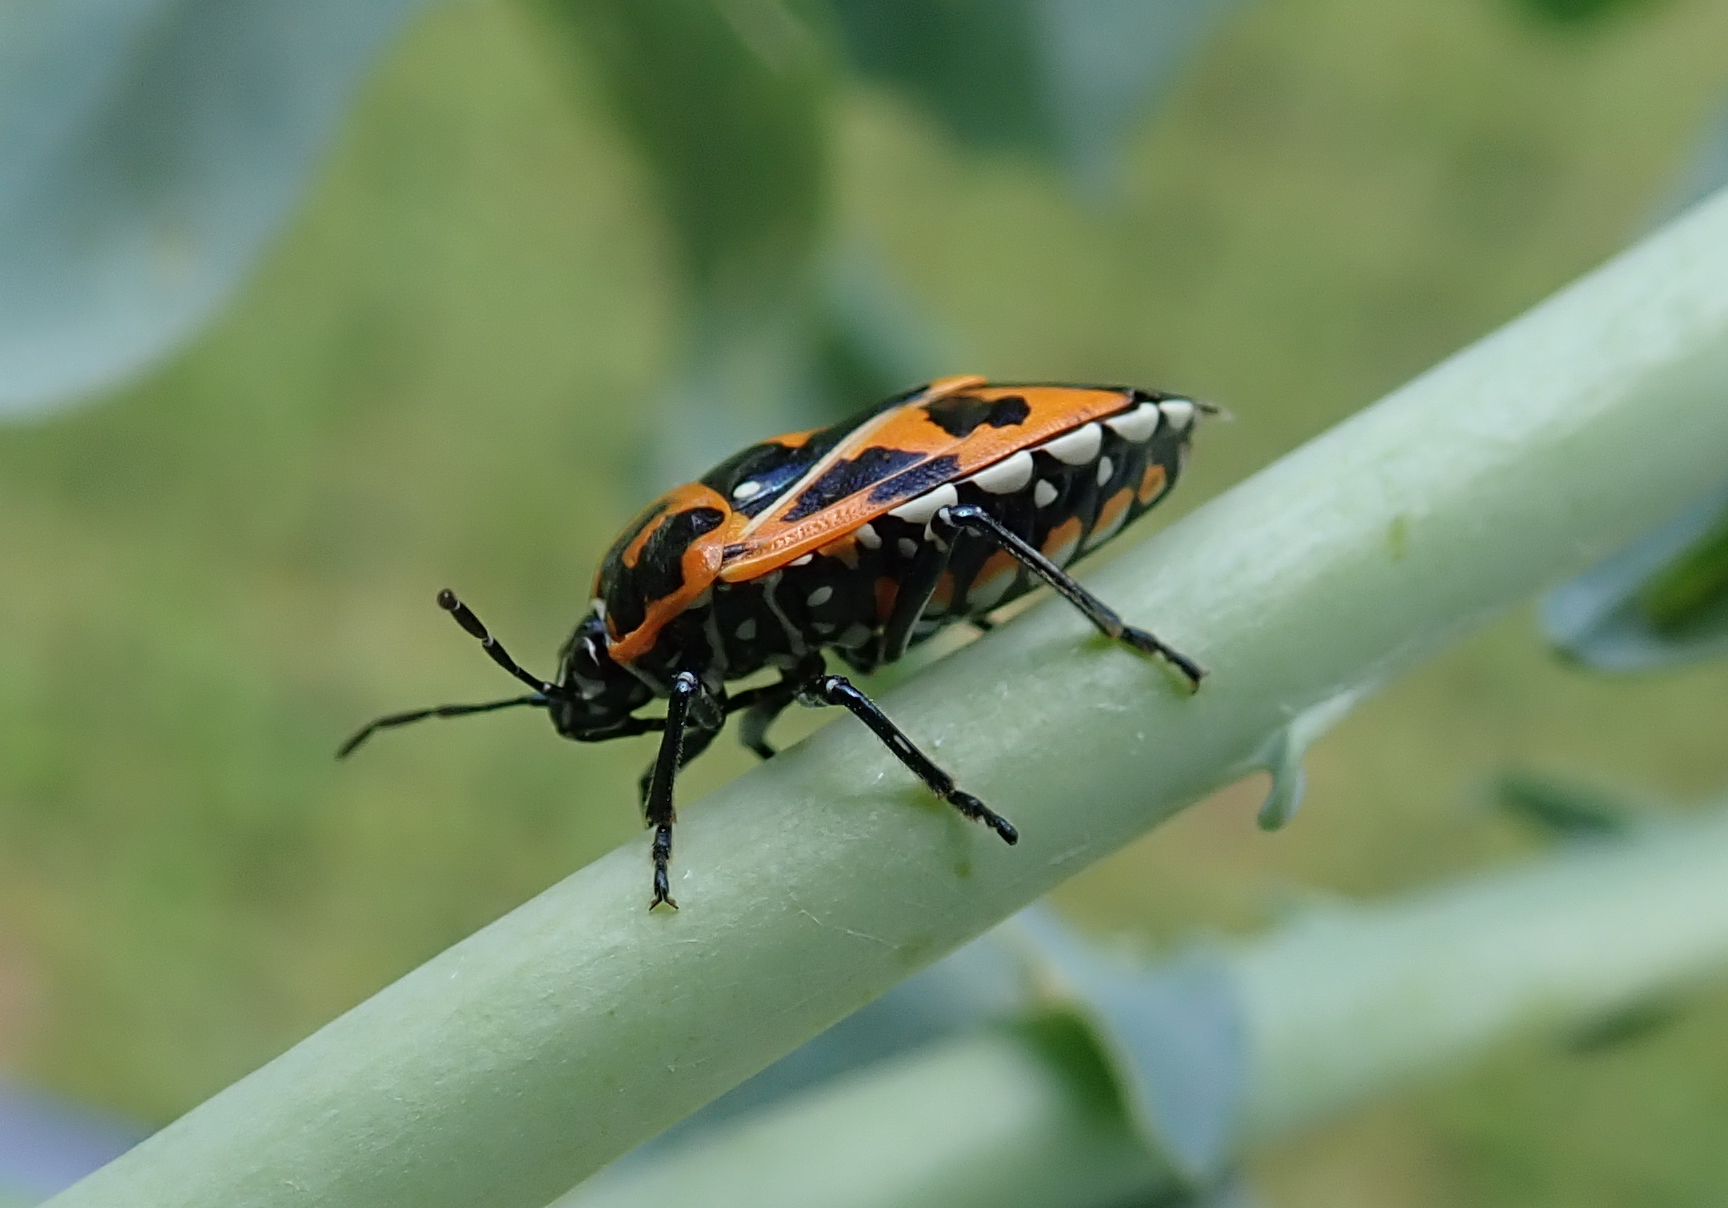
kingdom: Animalia
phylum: Arthropoda
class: Insecta
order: Hemiptera
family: Pentatomidae
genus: Murgantia
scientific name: Murgantia histrionica
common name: Harlequin bug
